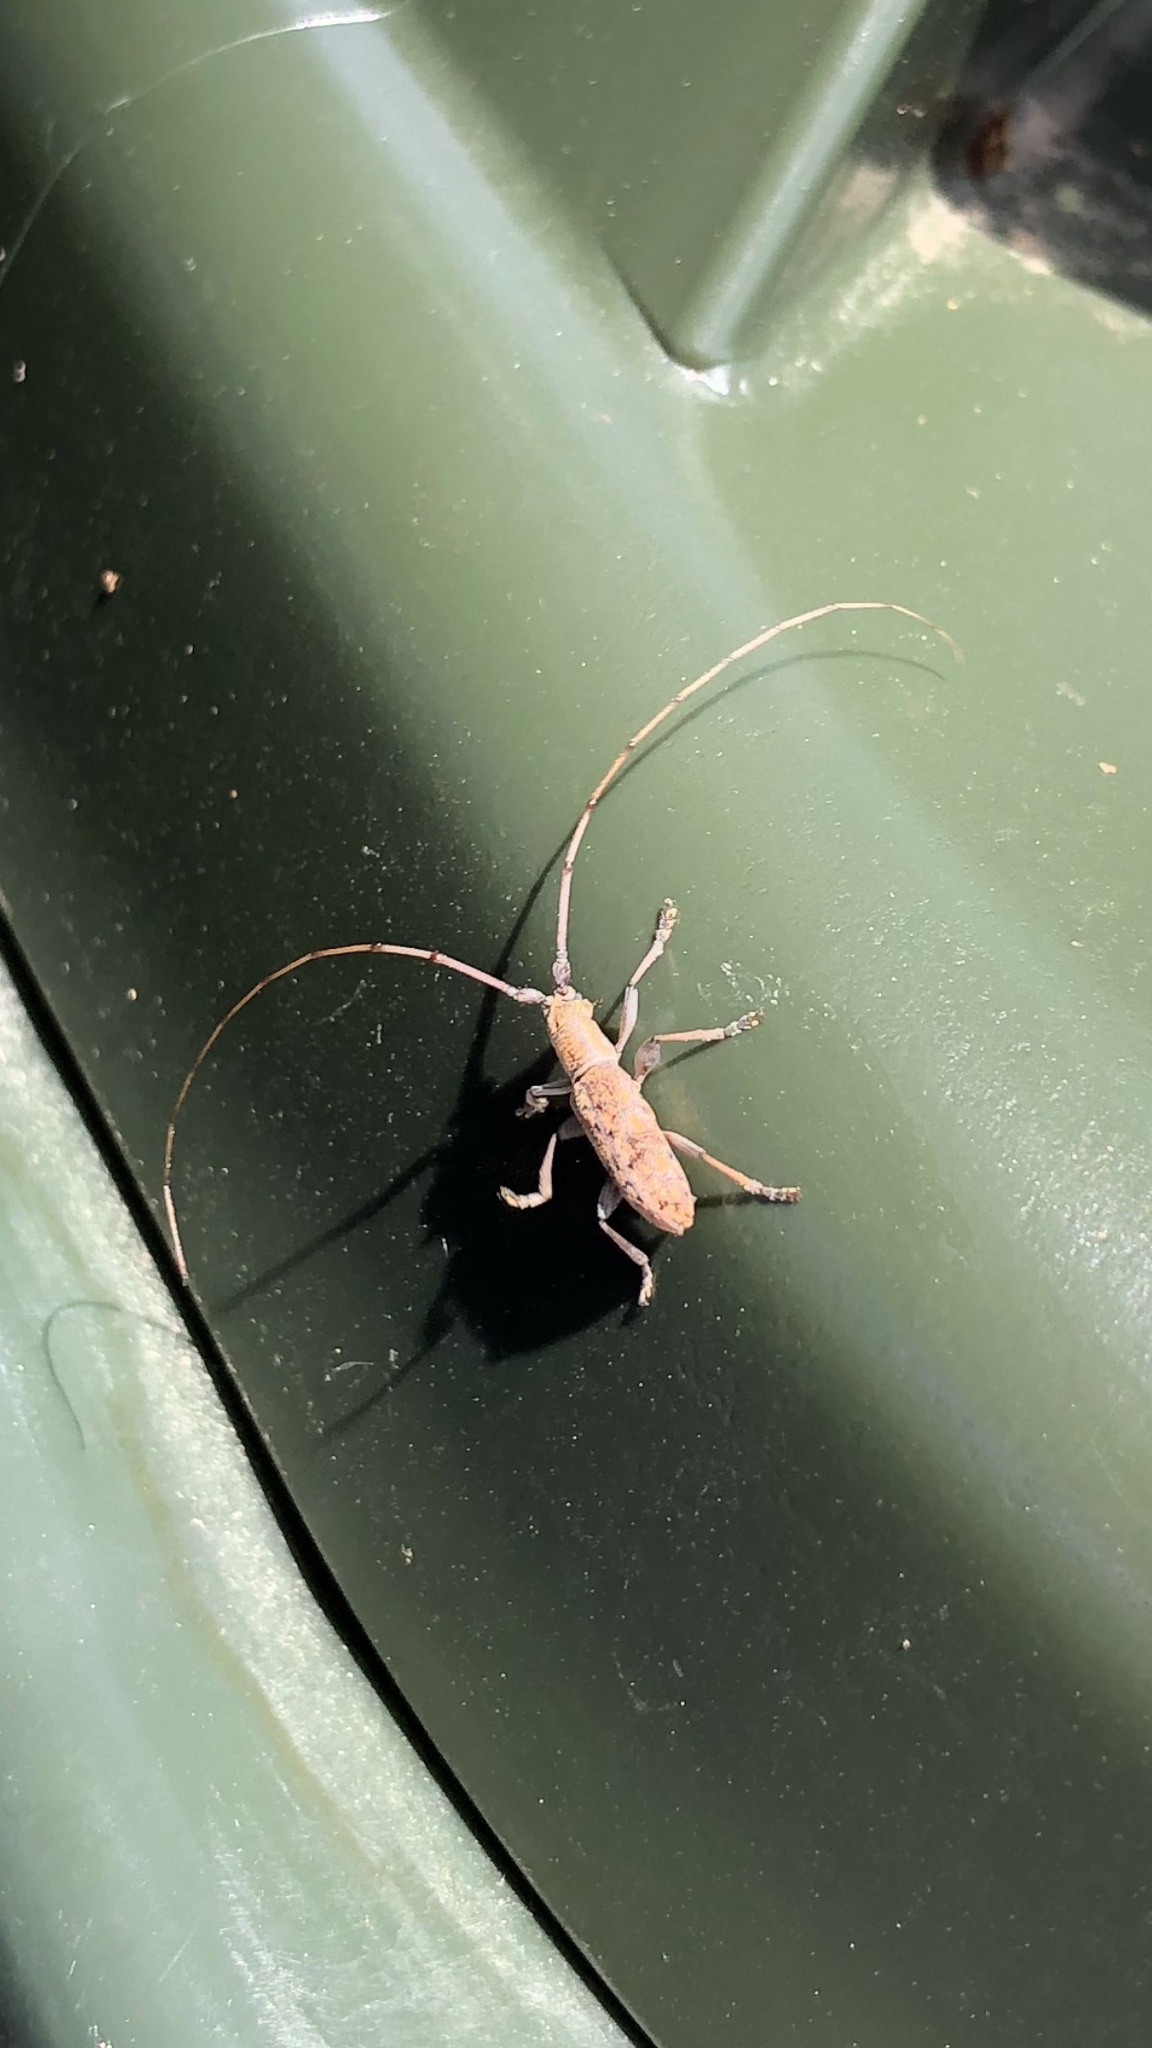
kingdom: Animalia
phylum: Arthropoda
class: Insecta
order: Coleoptera
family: Cerambycidae
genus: Dorcaschema
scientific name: Dorcaschema alternatum
